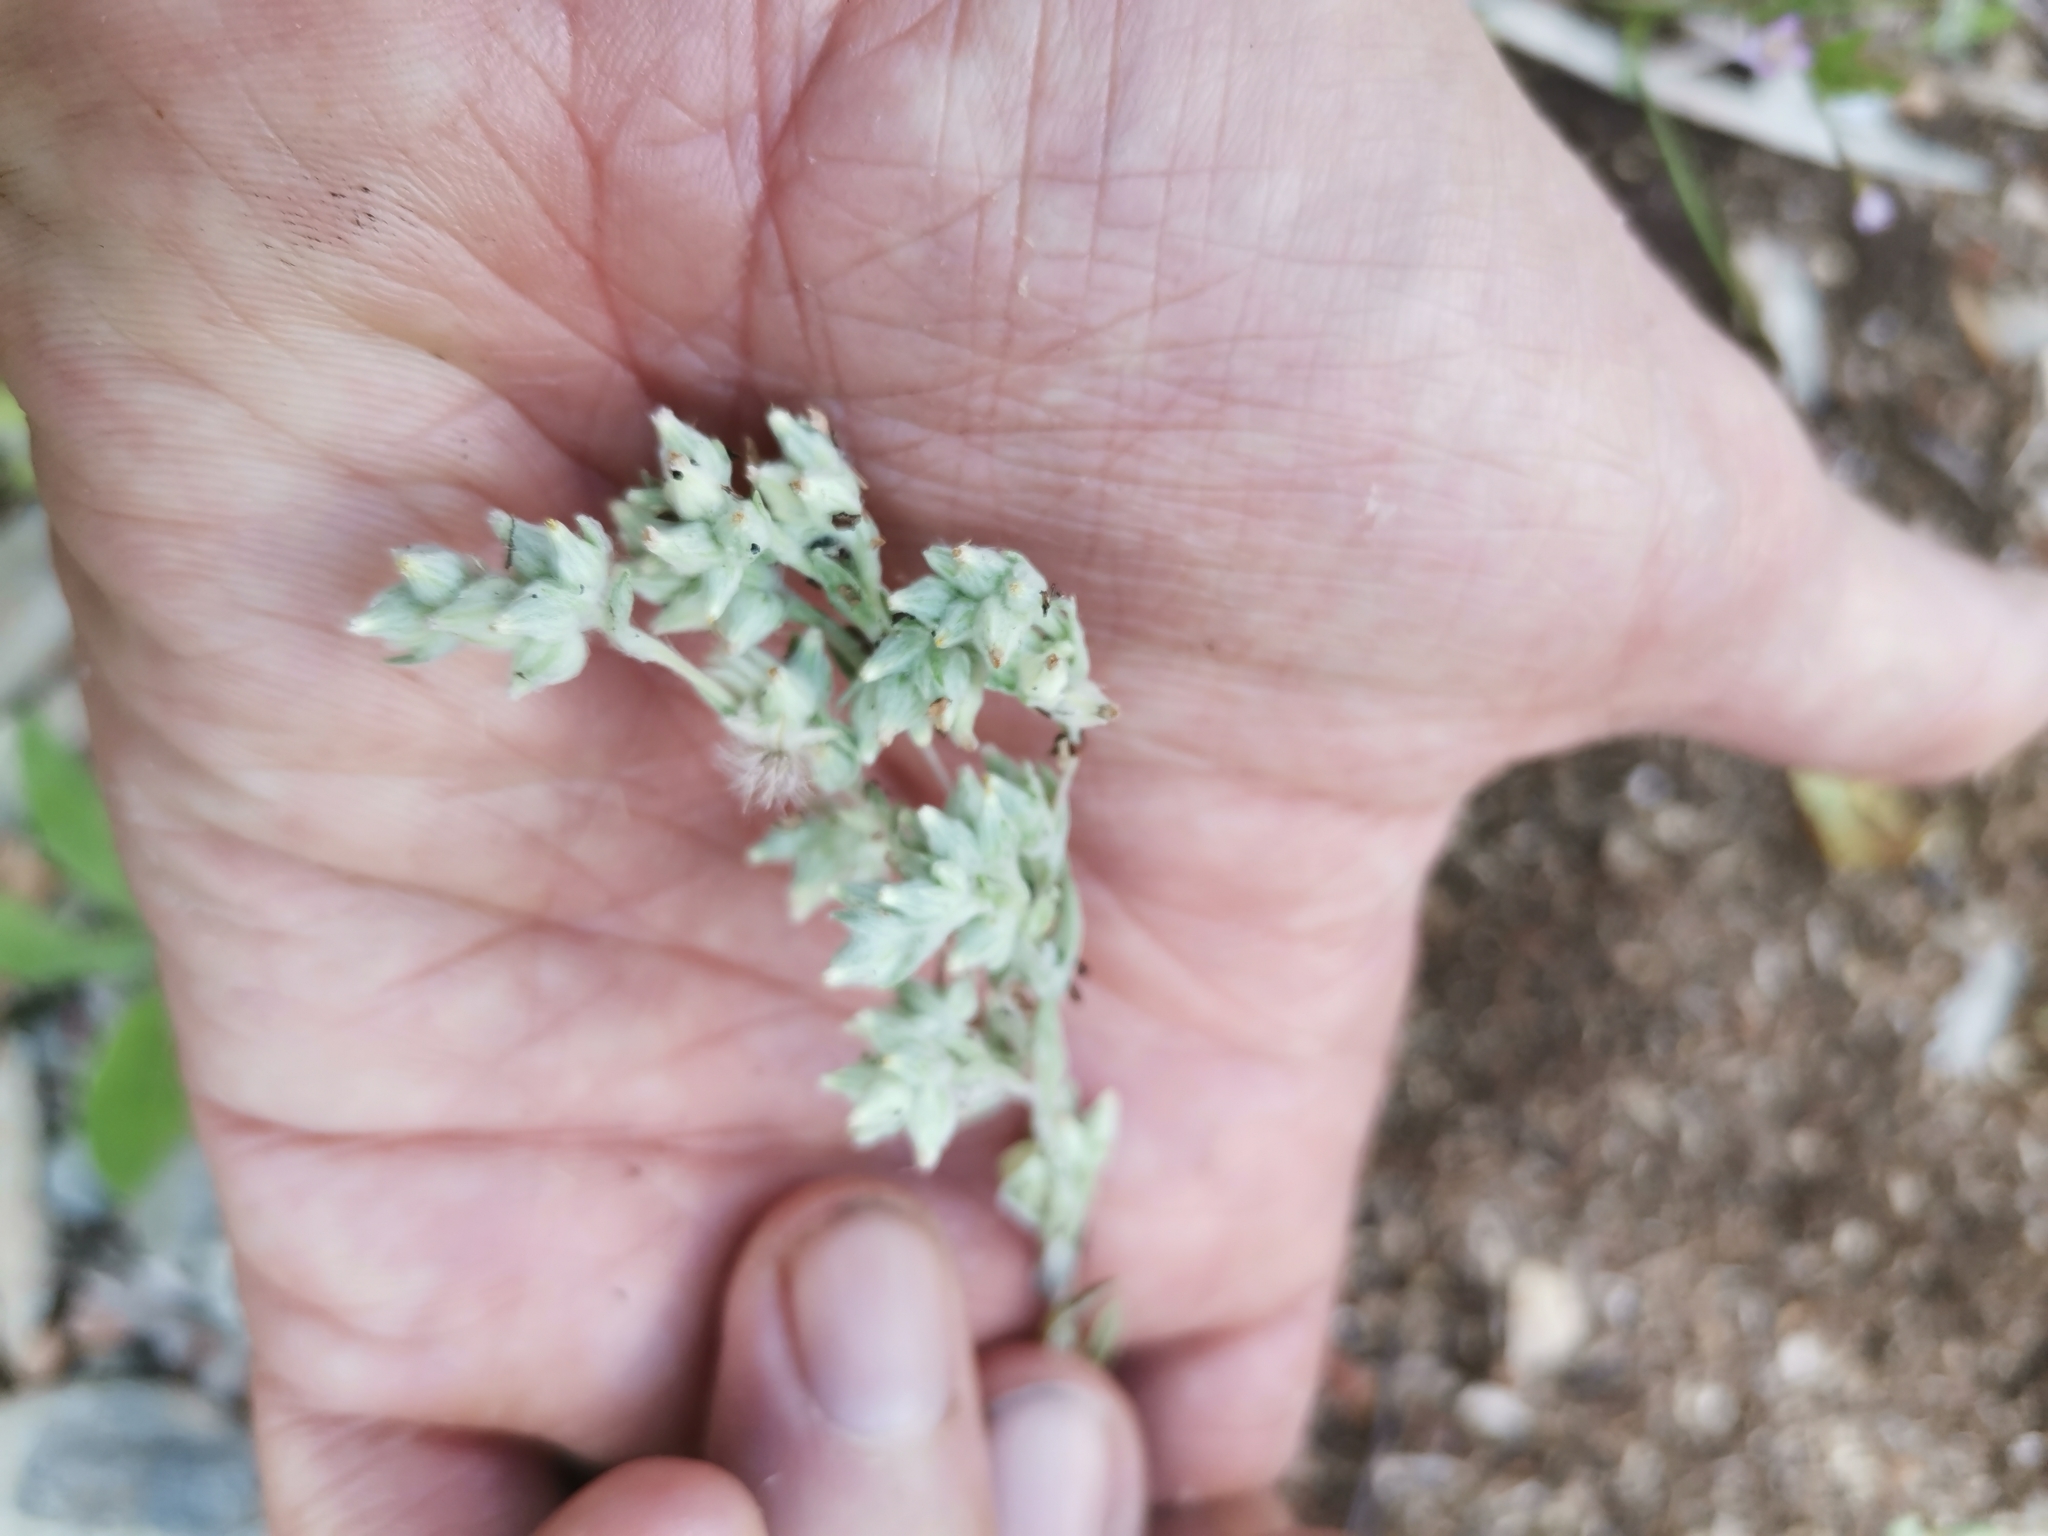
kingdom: Plantae
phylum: Tracheophyta
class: Magnoliopsida
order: Asterales
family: Asteraceae
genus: Filago
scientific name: Filago arvensis
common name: Field cudweed
